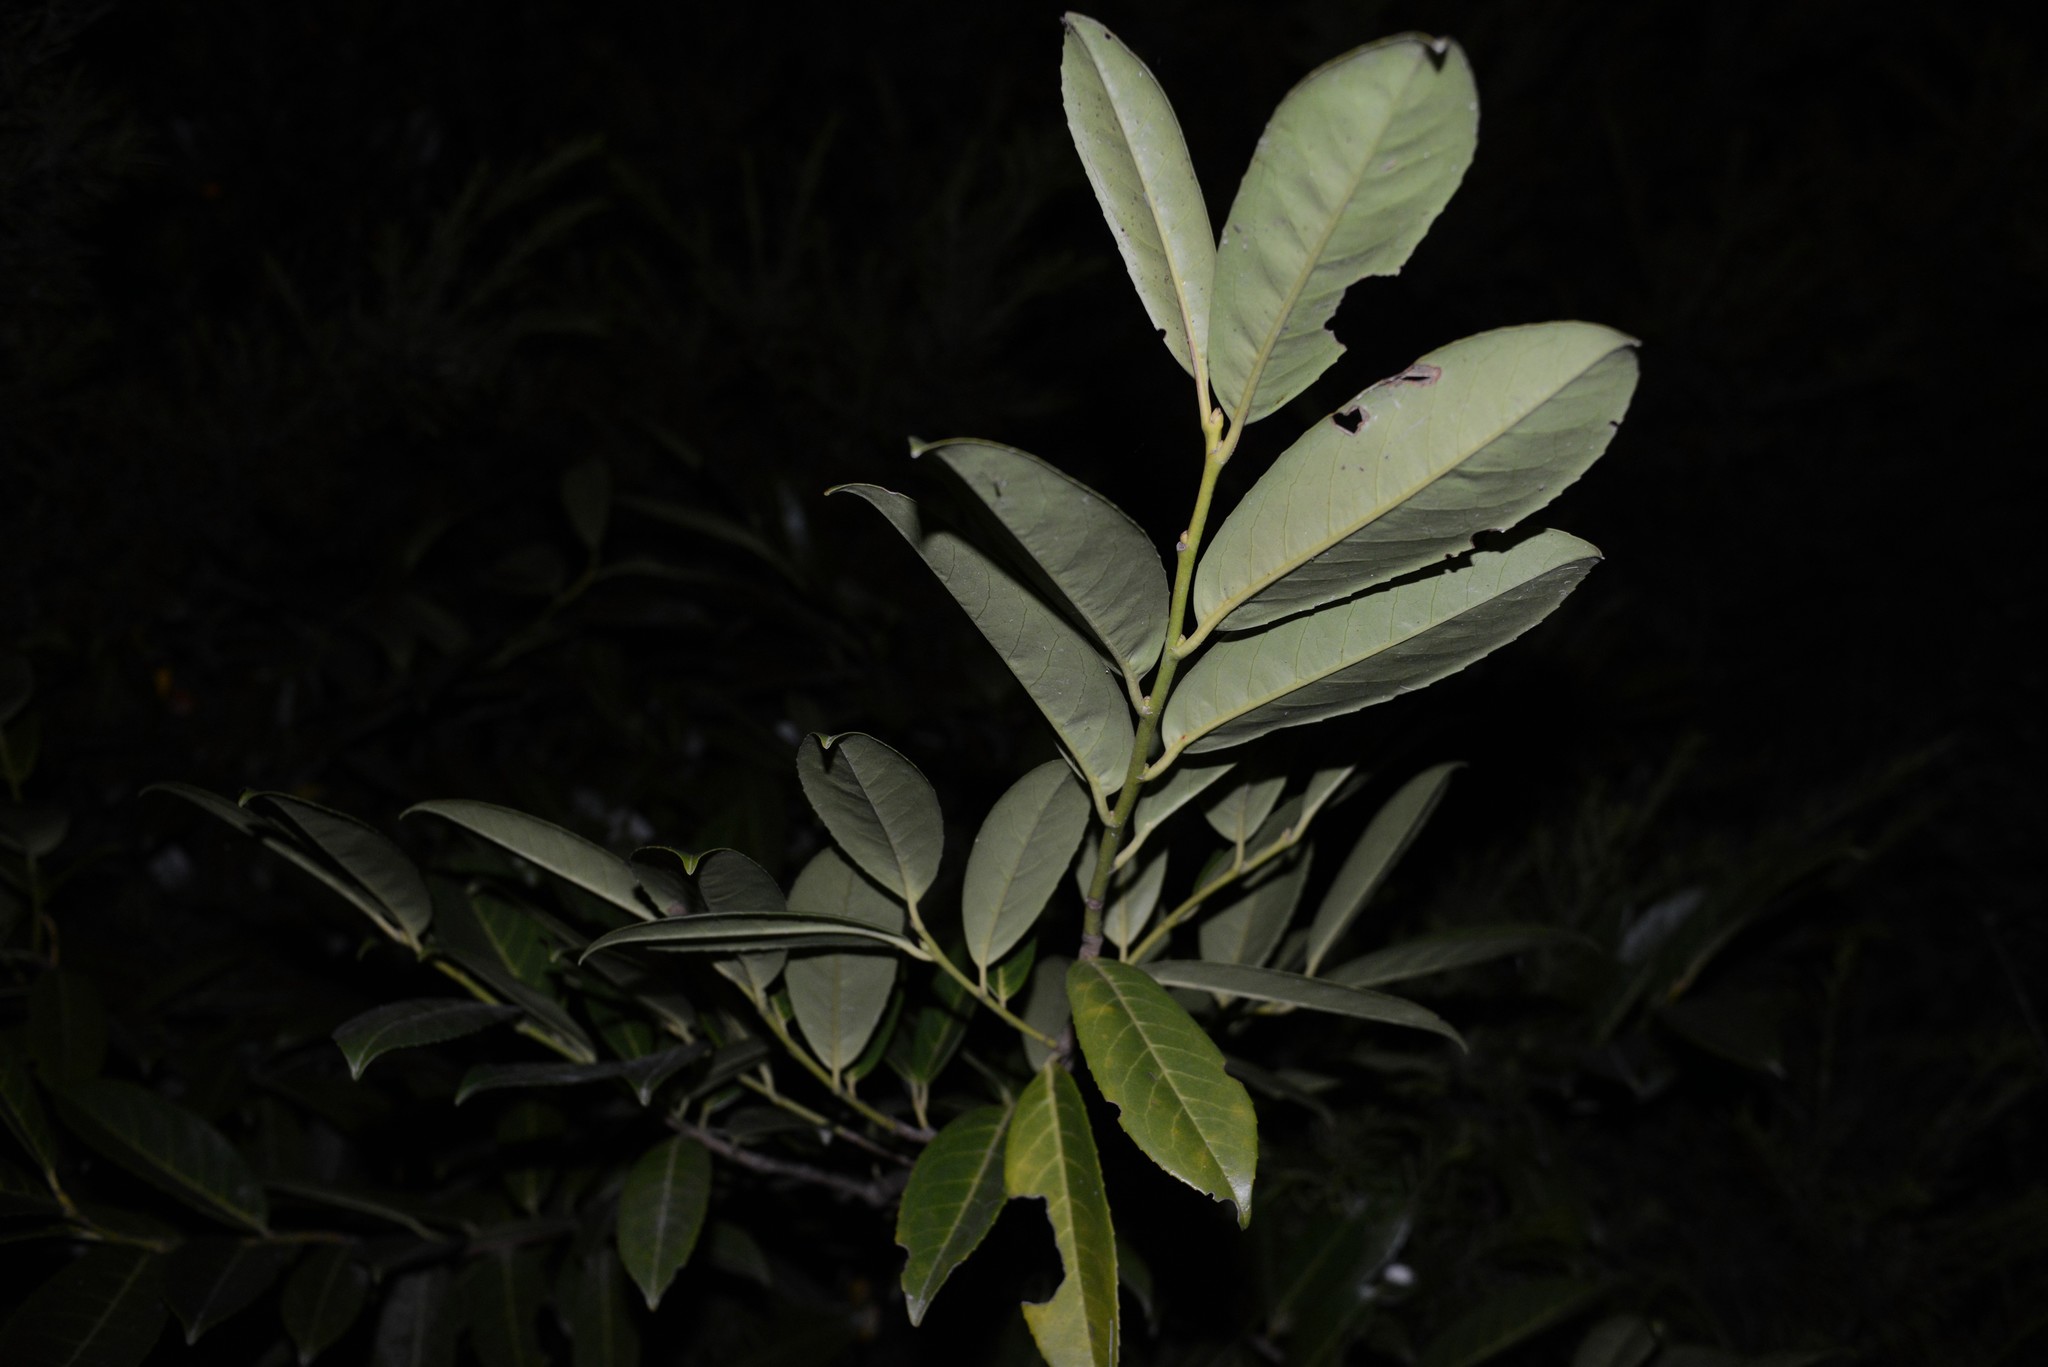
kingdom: Plantae
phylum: Tracheophyta
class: Magnoliopsida
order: Rosales
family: Rosaceae
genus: Prunus
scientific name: Prunus laurocerasus
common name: Cherry laurel
